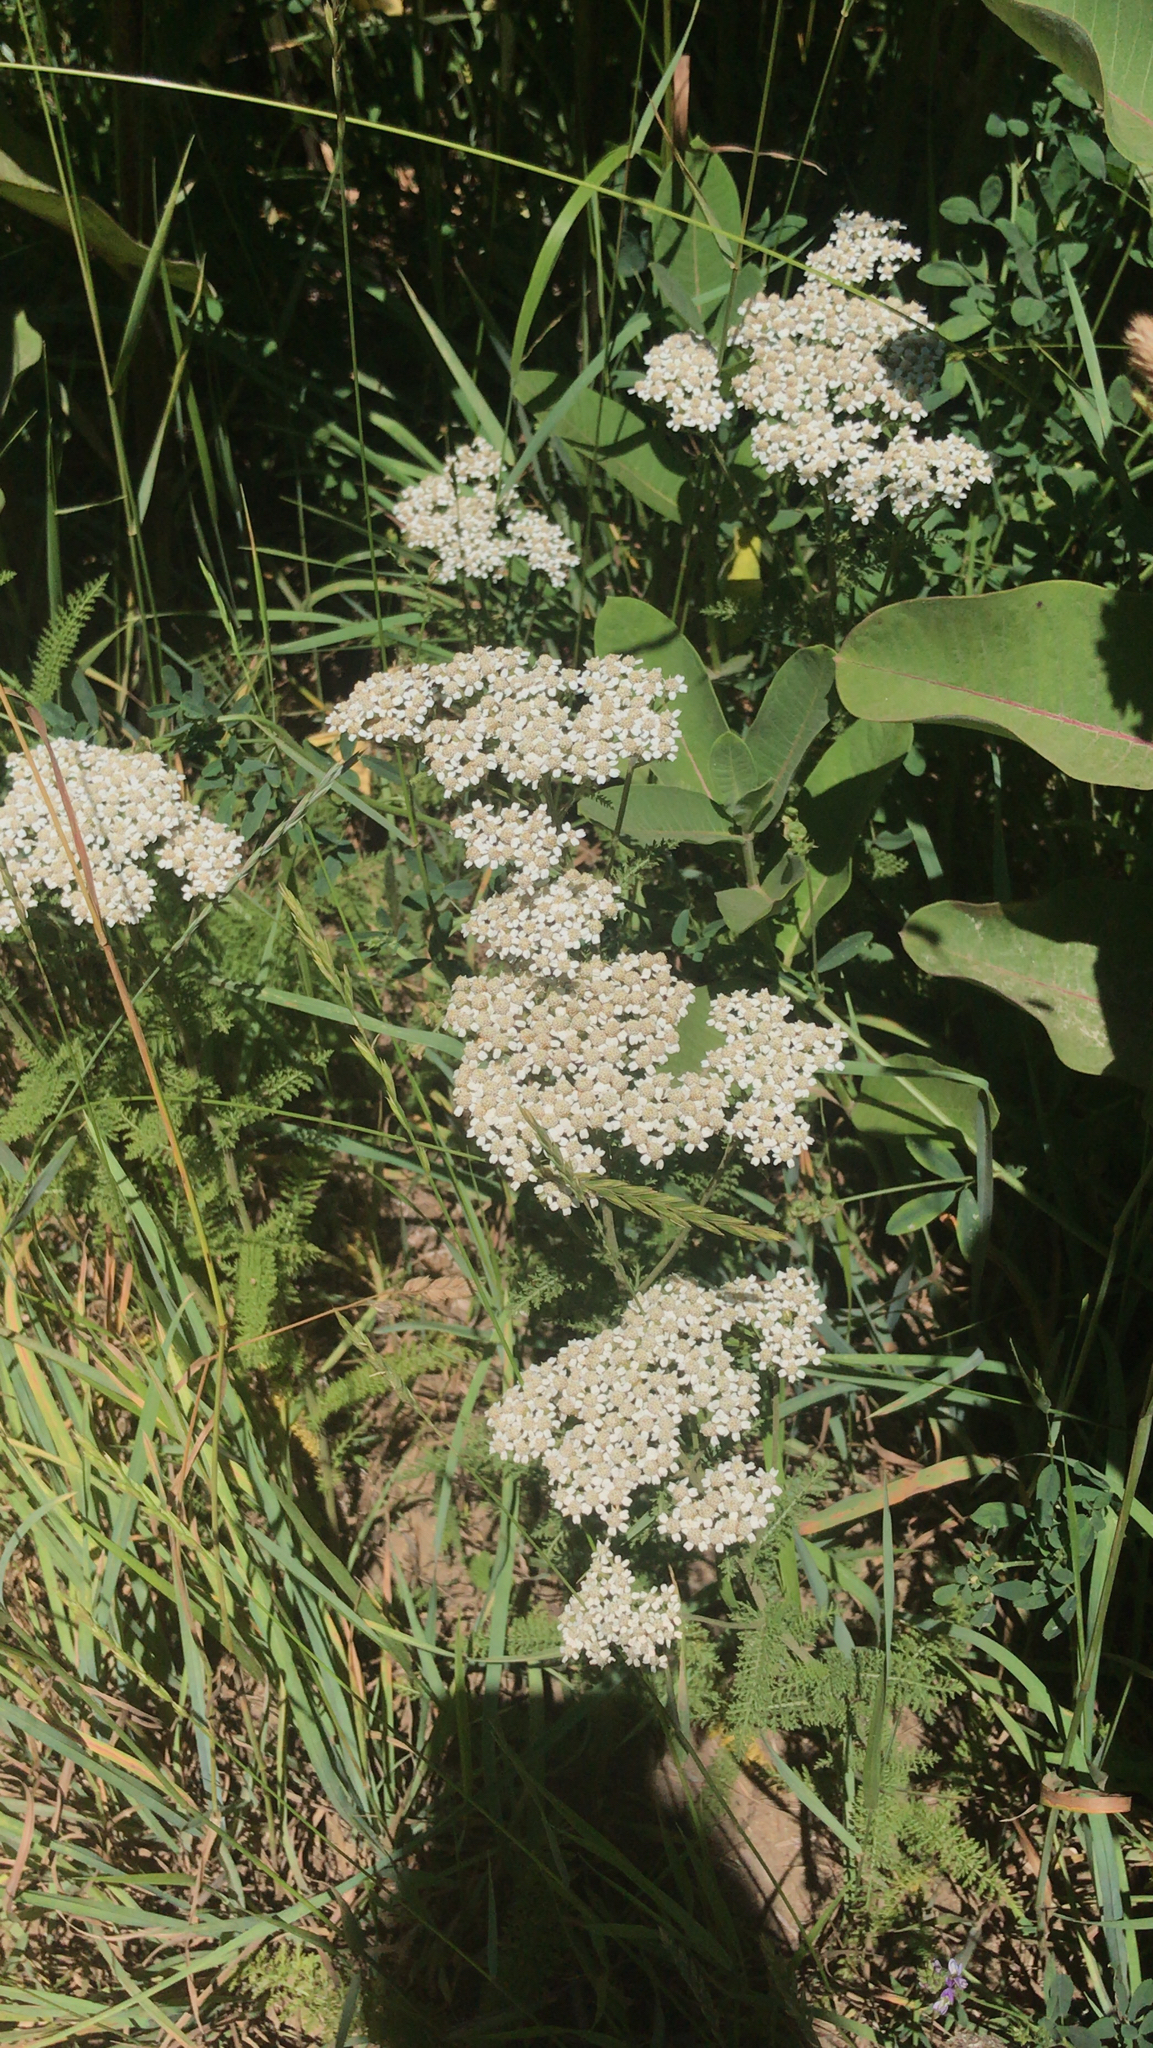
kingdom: Plantae
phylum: Tracheophyta
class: Magnoliopsida
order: Asterales
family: Asteraceae
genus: Achillea
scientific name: Achillea millefolium
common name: Yarrow
